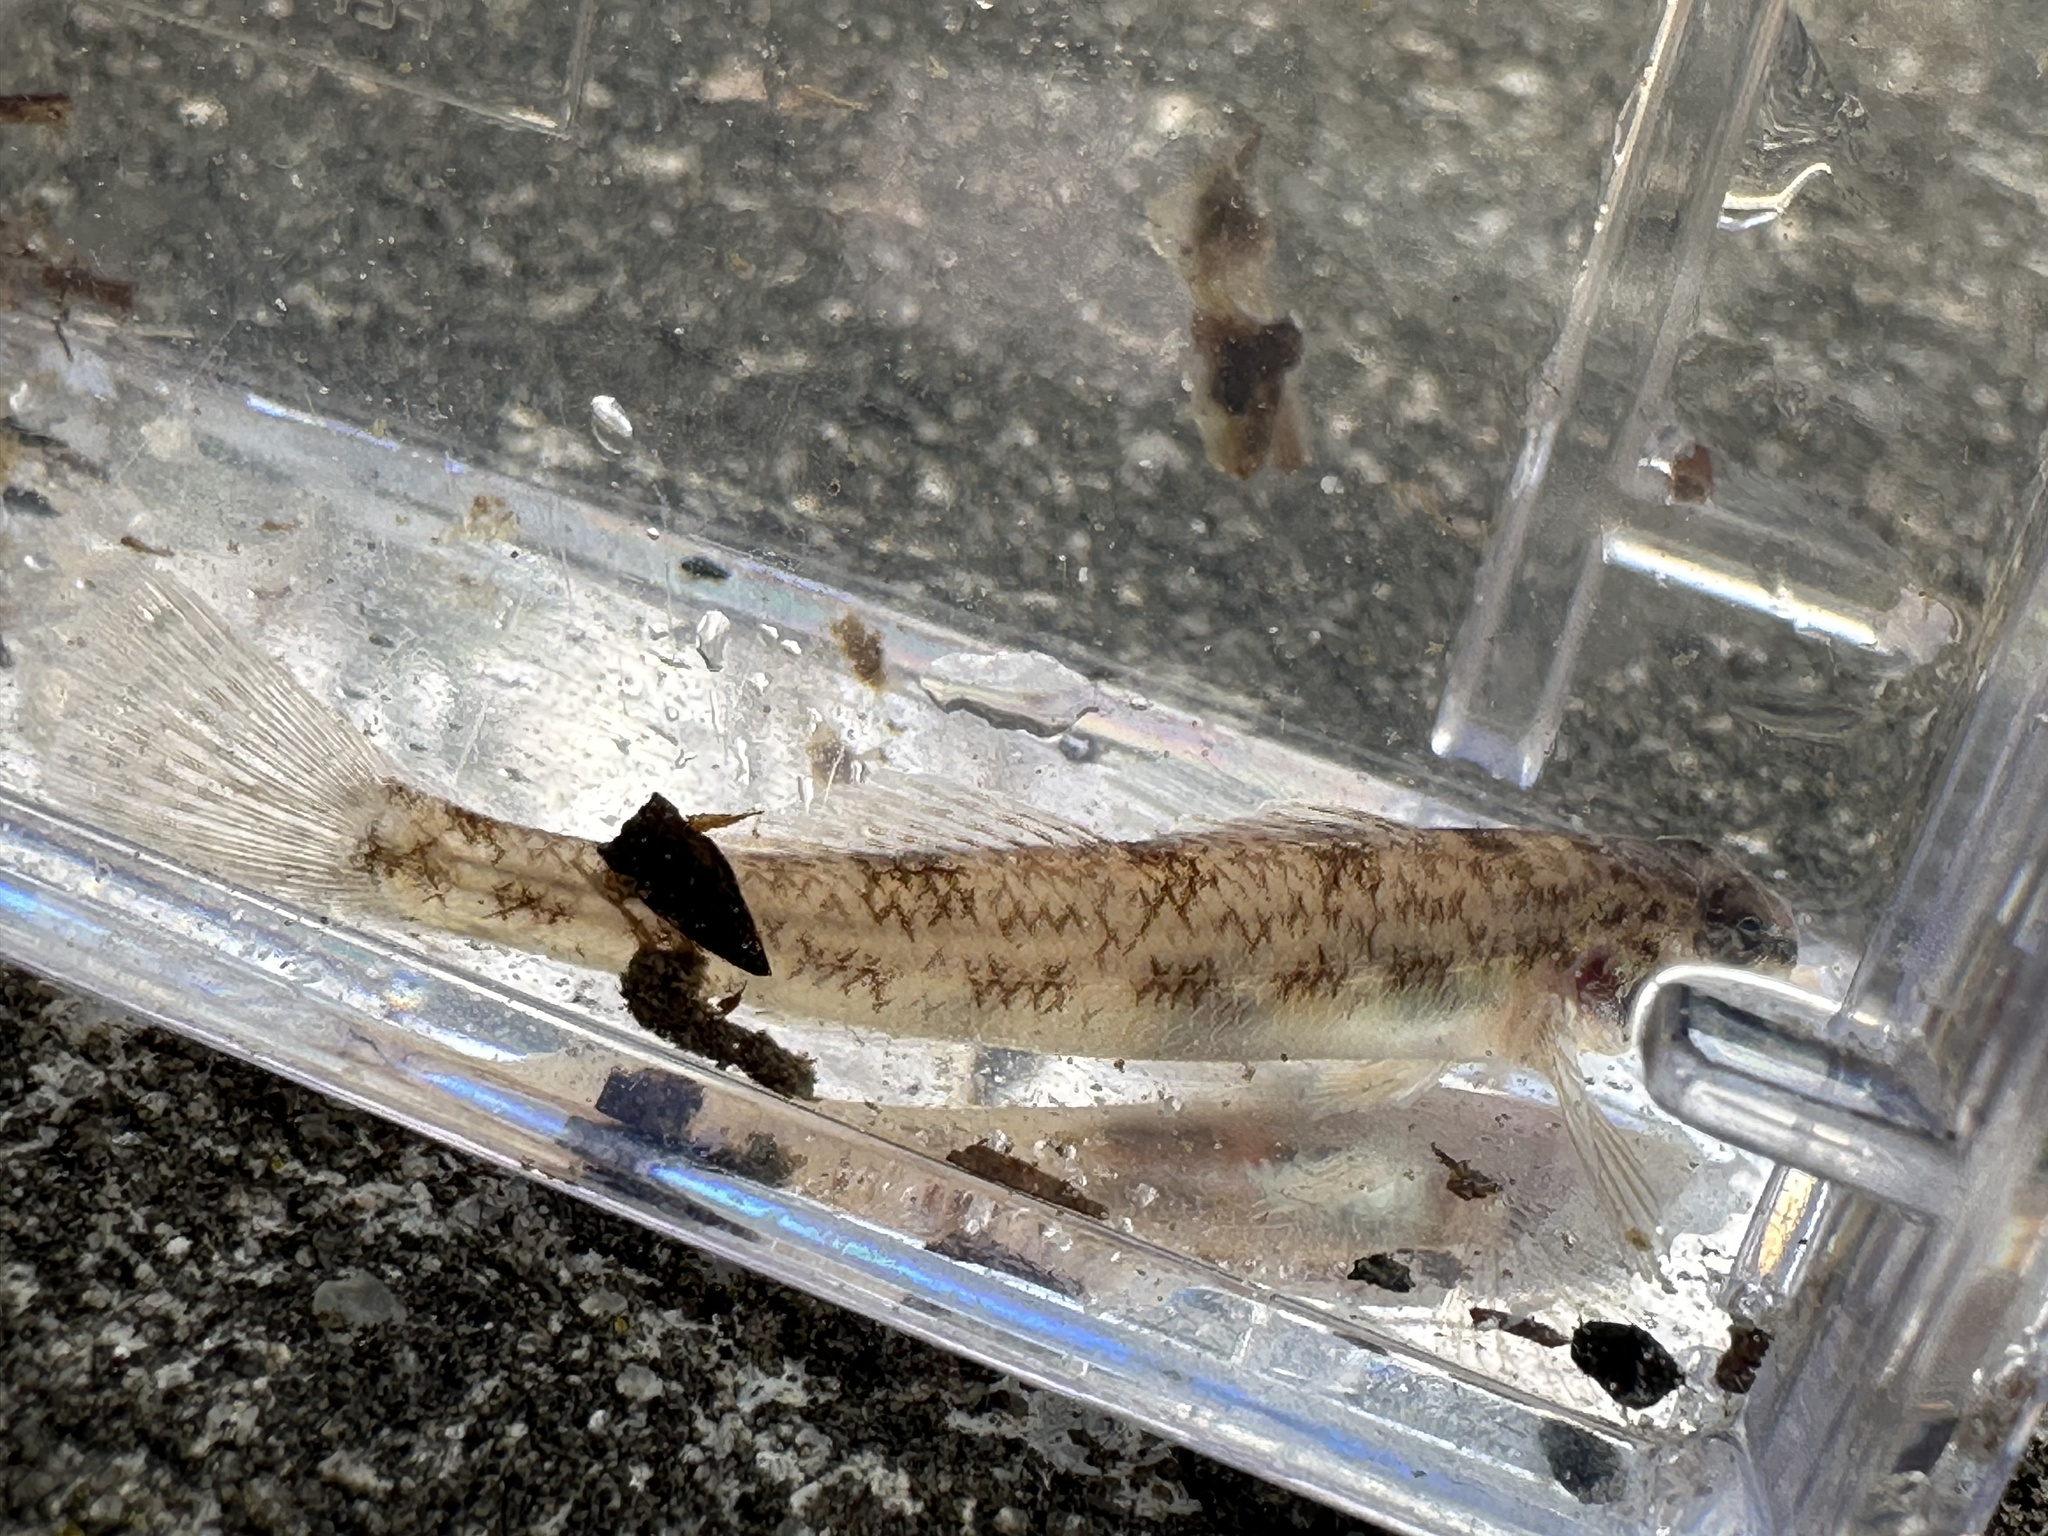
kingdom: Animalia
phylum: Chordata
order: Perciformes
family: Percidae
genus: Etheostoma
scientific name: Etheostoma
